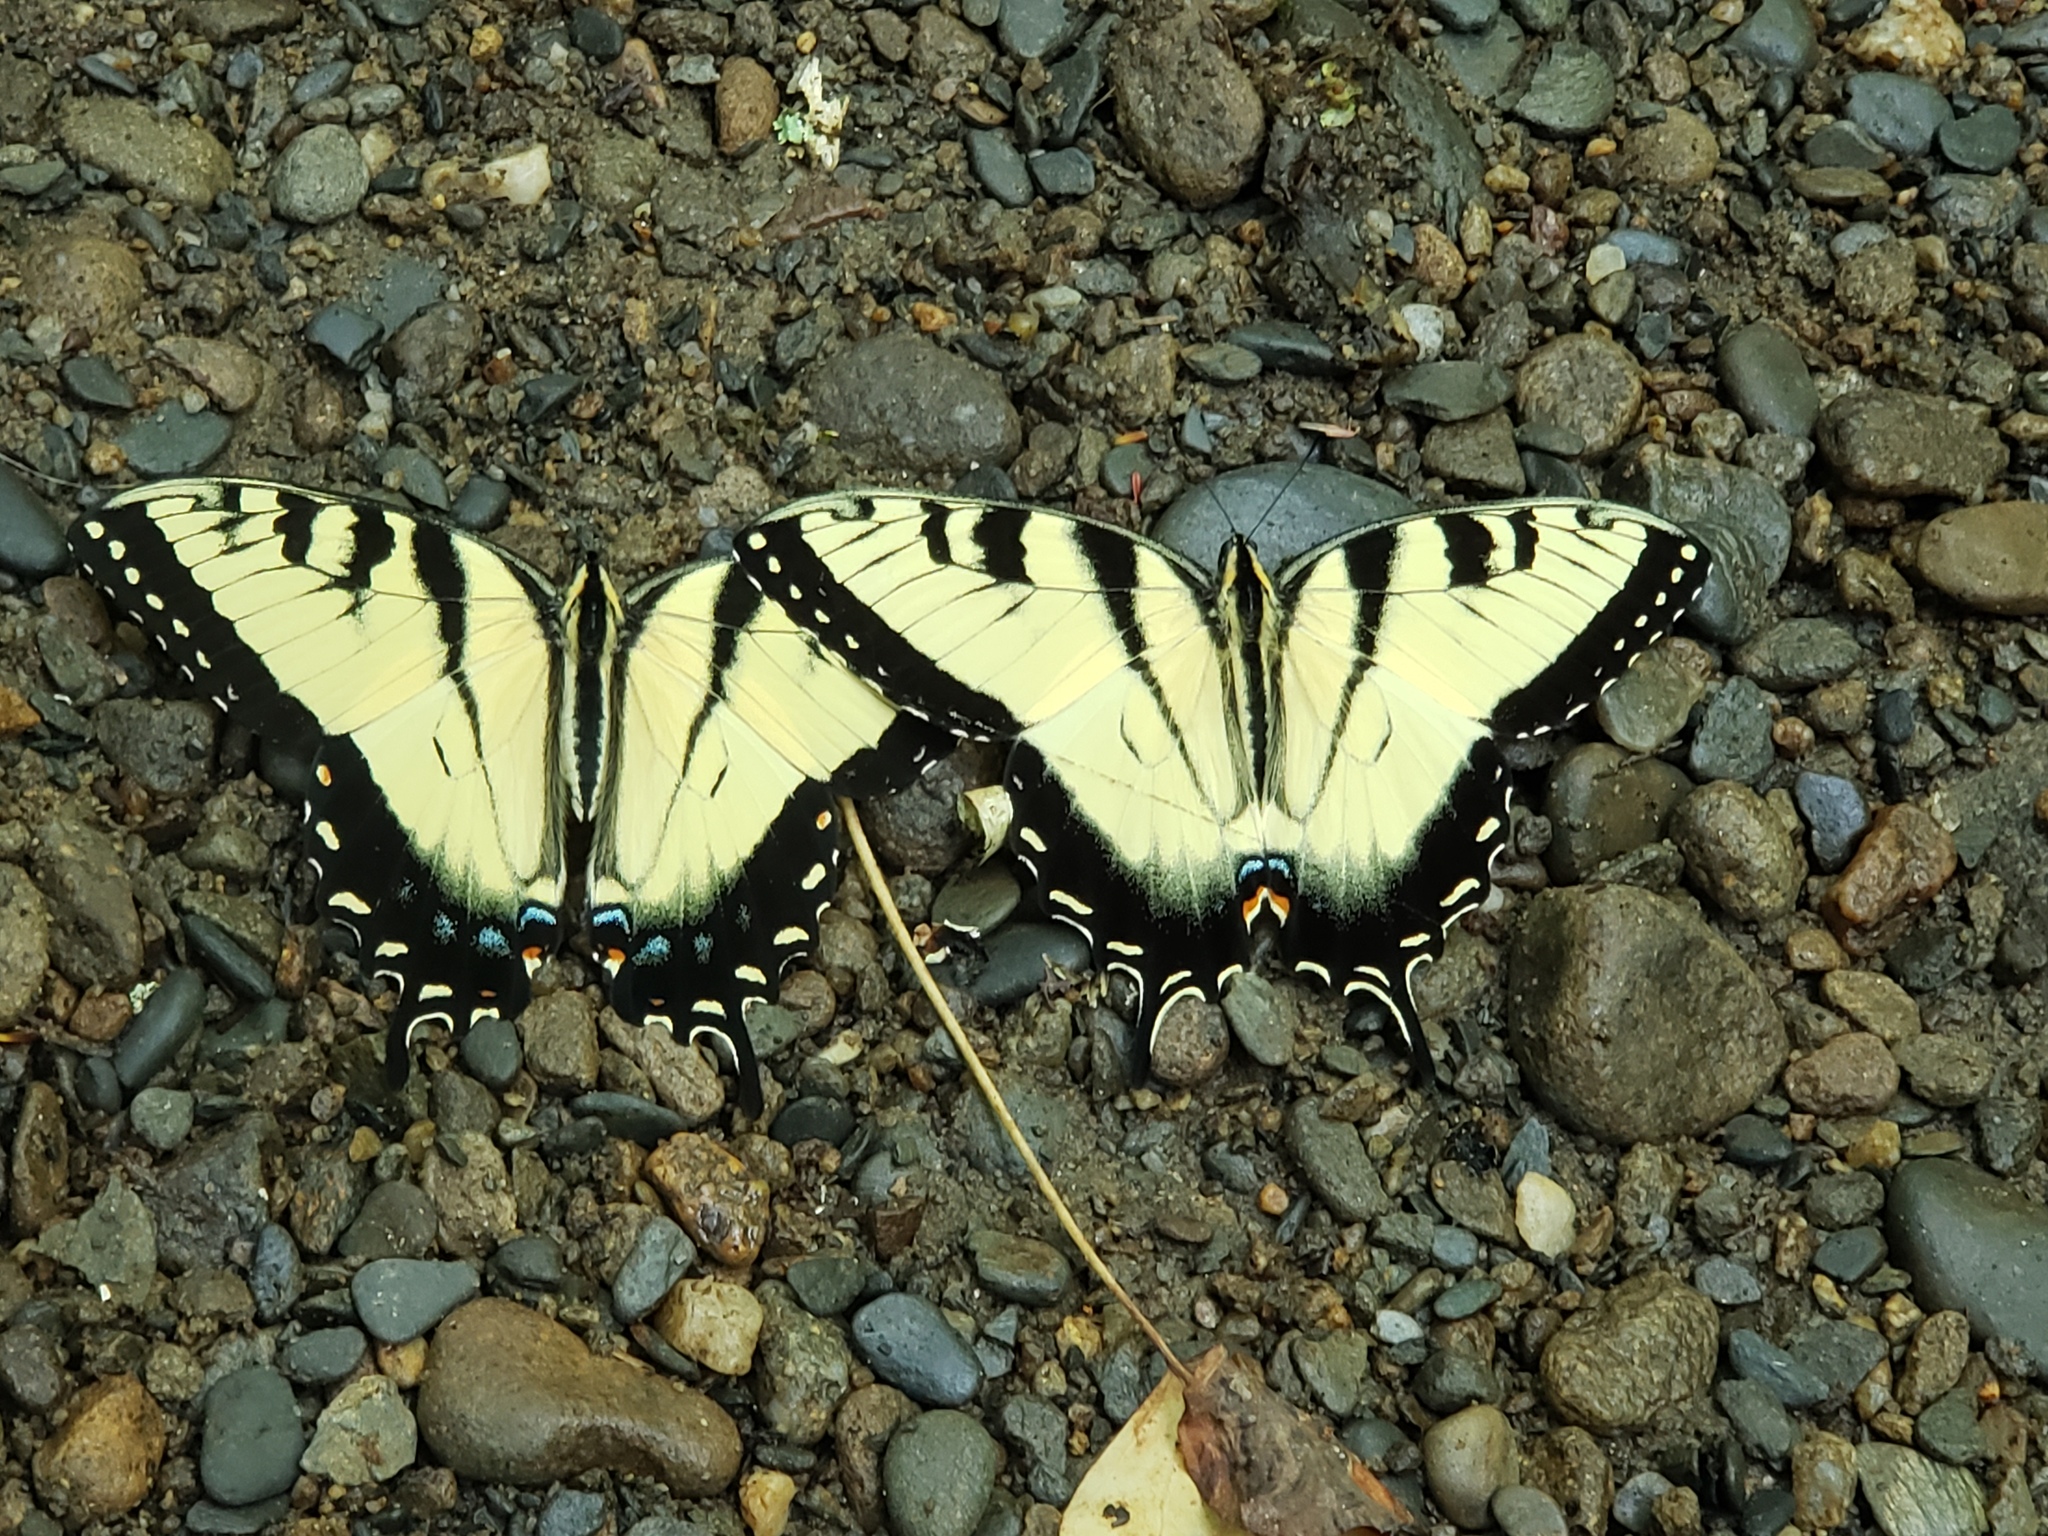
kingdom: Animalia
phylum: Arthropoda
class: Insecta
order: Lepidoptera
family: Papilionidae
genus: Papilio
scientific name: Papilio glaucus
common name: Tiger swallowtail
